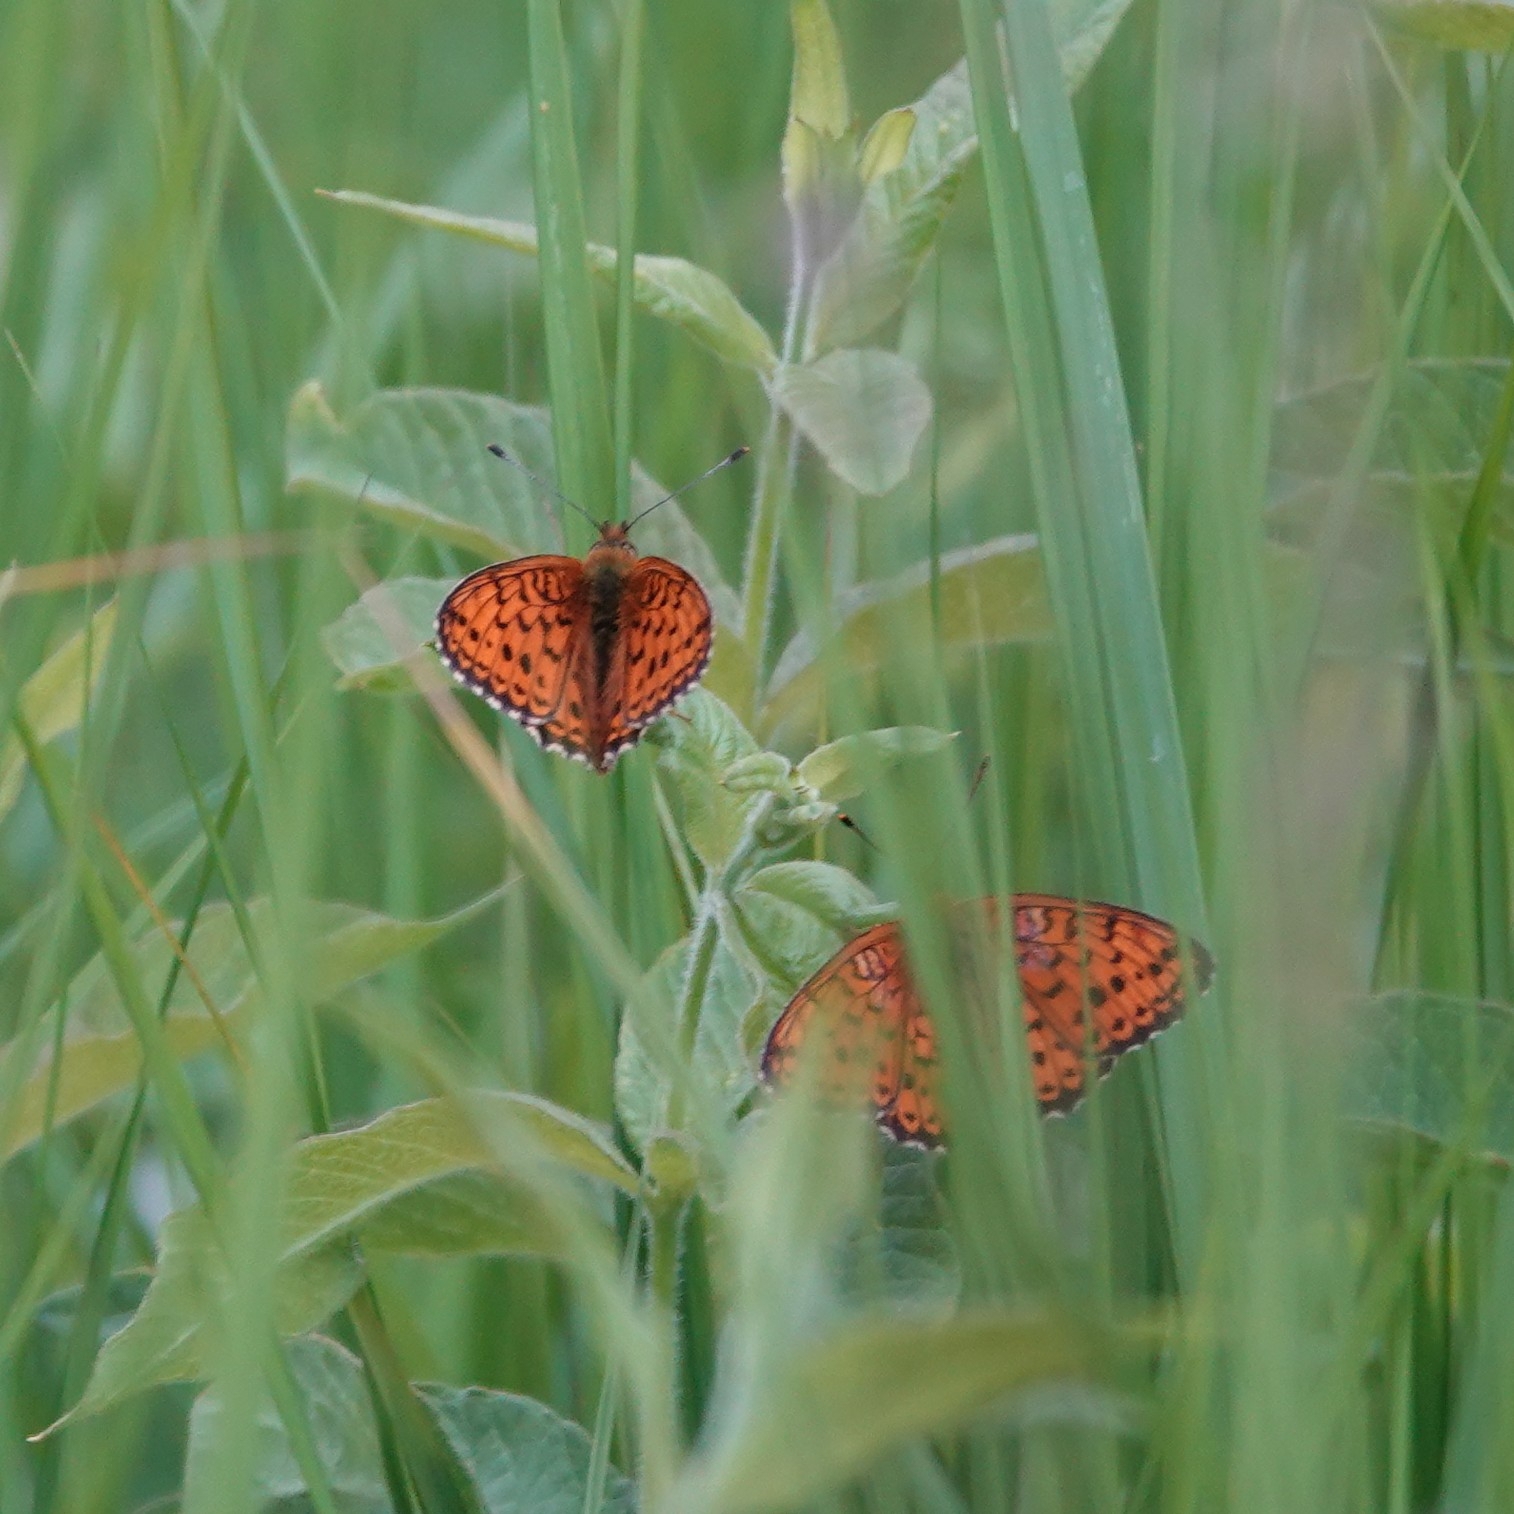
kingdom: Animalia
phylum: Arthropoda
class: Insecta
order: Lepidoptera
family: Nymphalidae
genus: Brenthis
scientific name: Brenthis ino
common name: Lesser marbled fritillary
